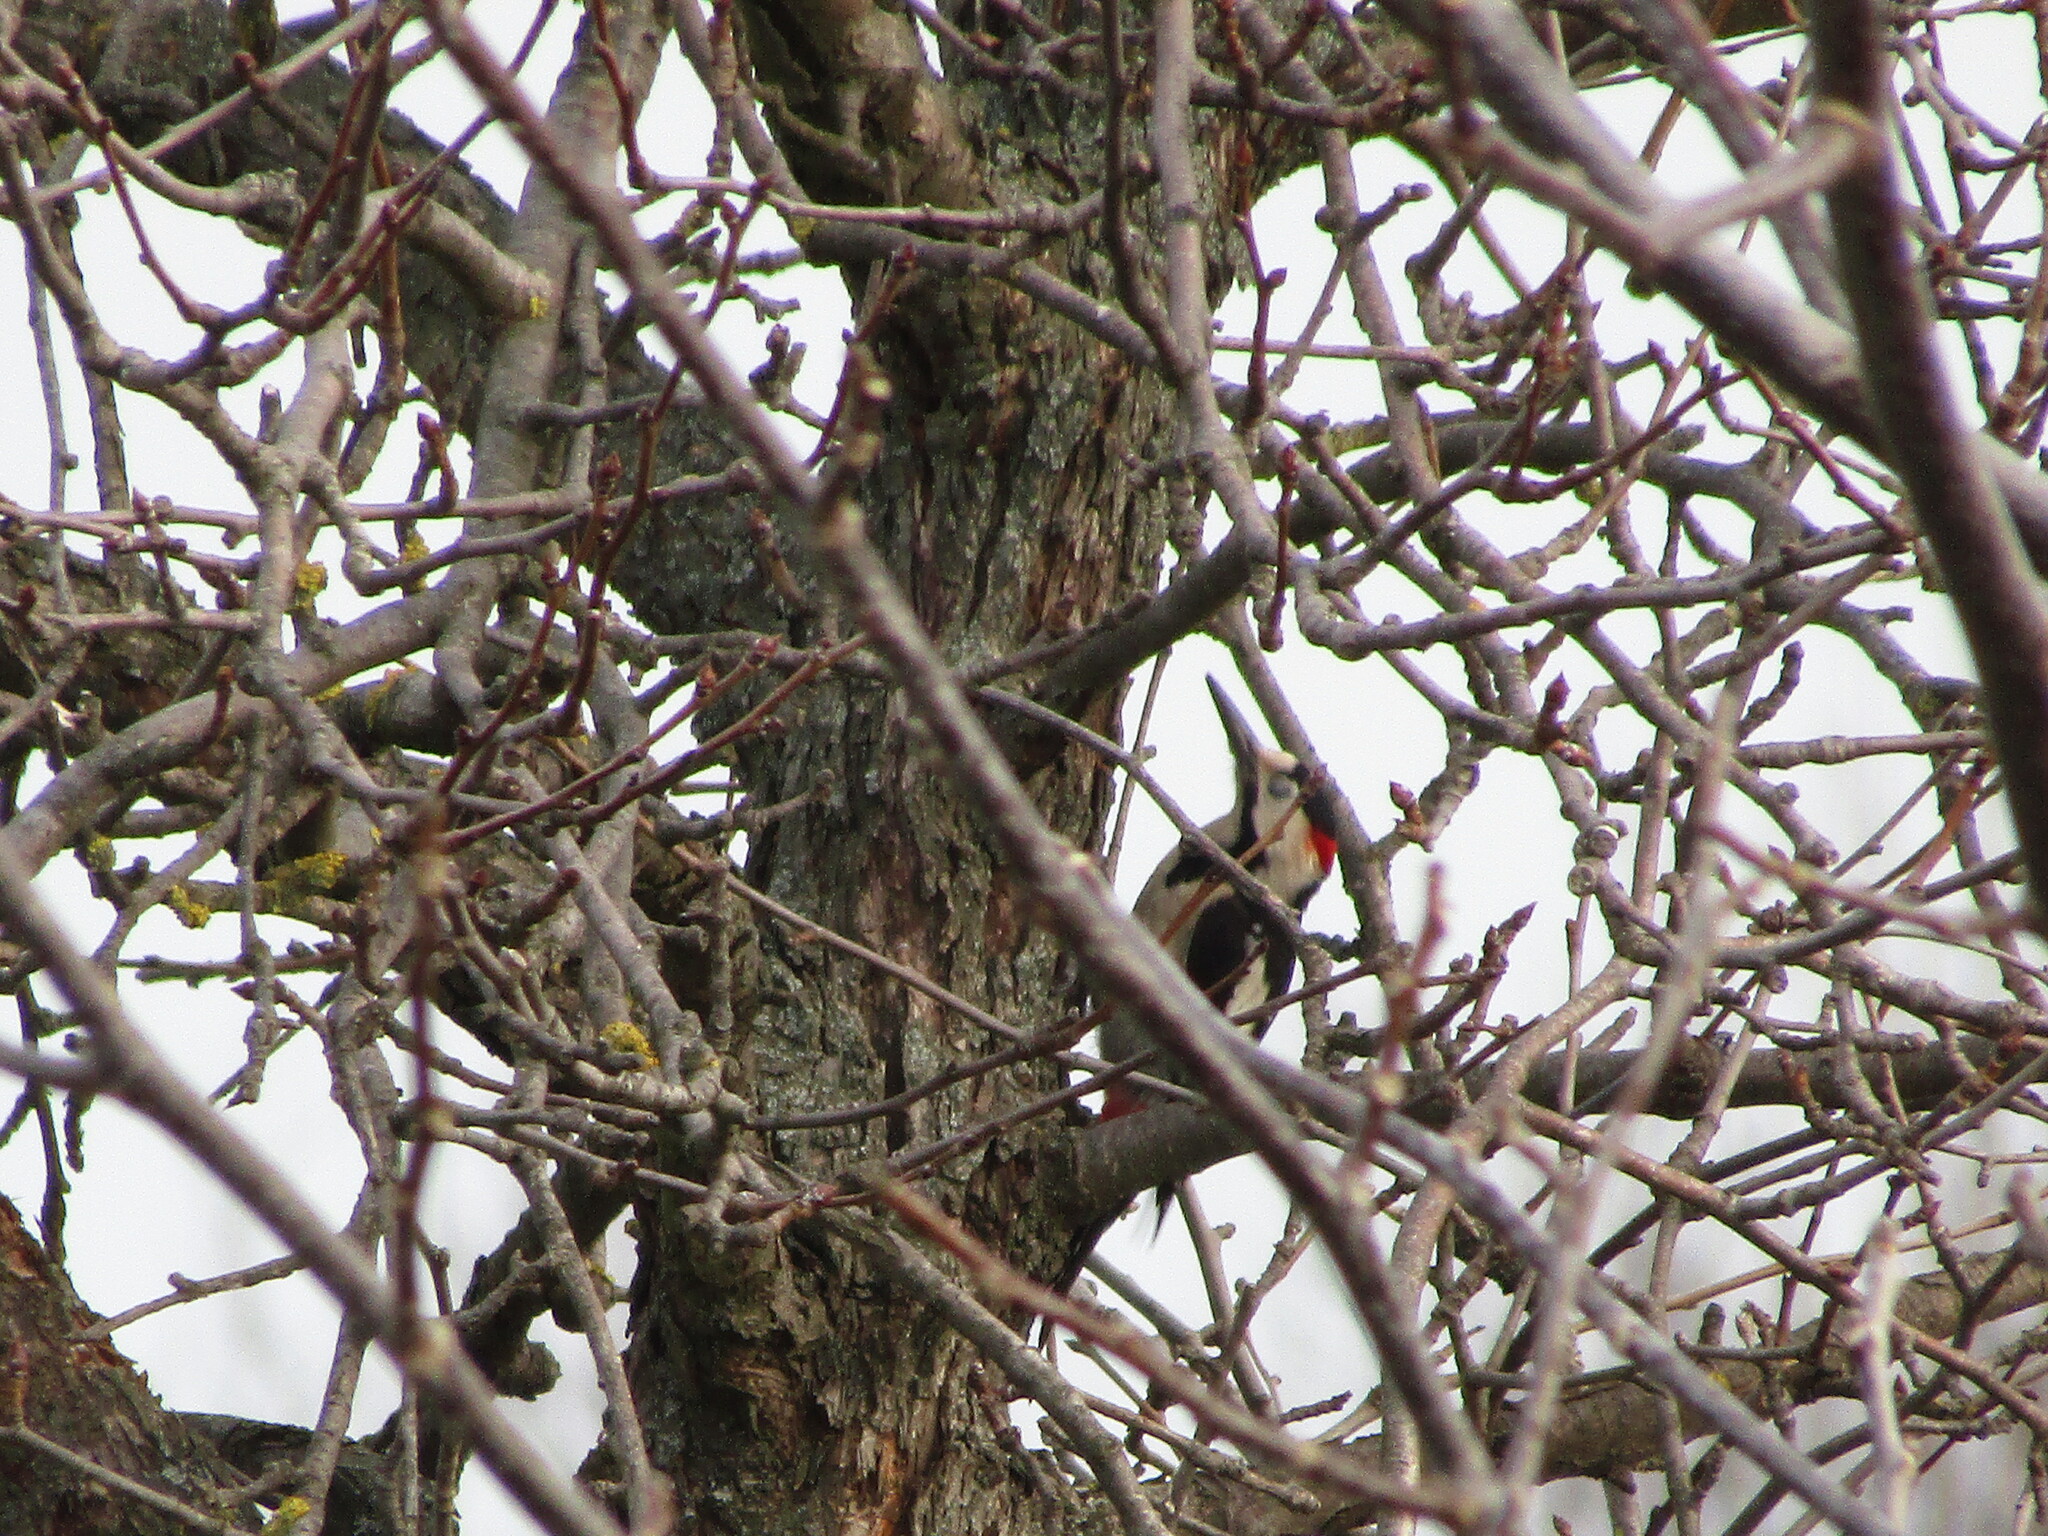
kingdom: Animalia
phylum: Chordata
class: Aves
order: Piciformes
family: Picidae
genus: Dendrocopos
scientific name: Dendrocopos syriacus
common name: Syrian woodpecker
